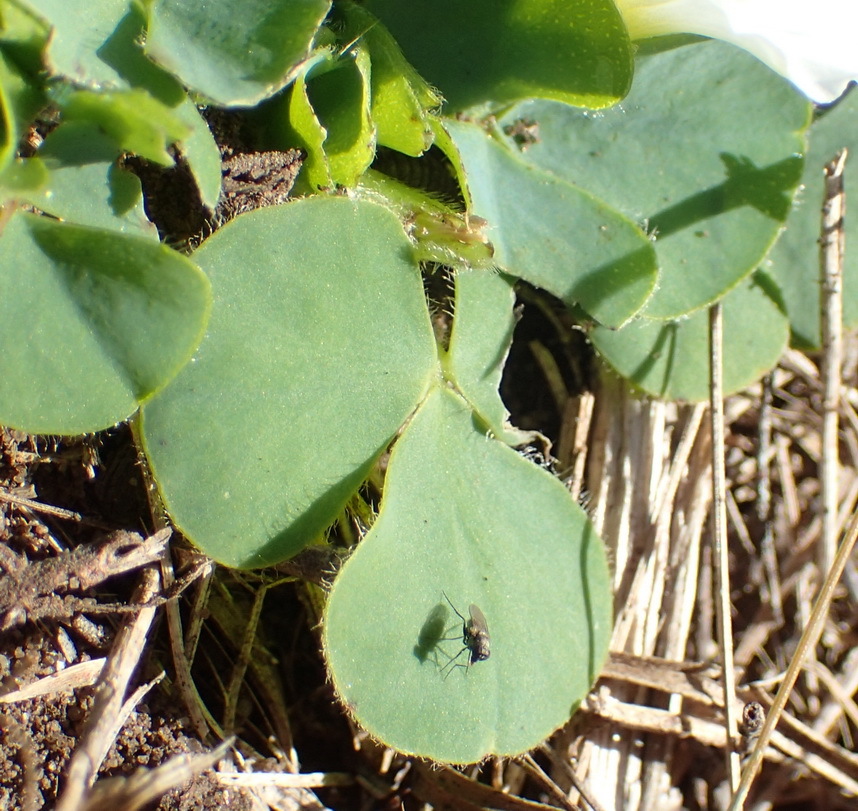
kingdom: Plantae
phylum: Tracheophyta
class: Magnoliopsida
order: Oxalidales
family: Oxalidaceae
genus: Oxalis
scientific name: Oxalis purpurea
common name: Purple woodsorrel
